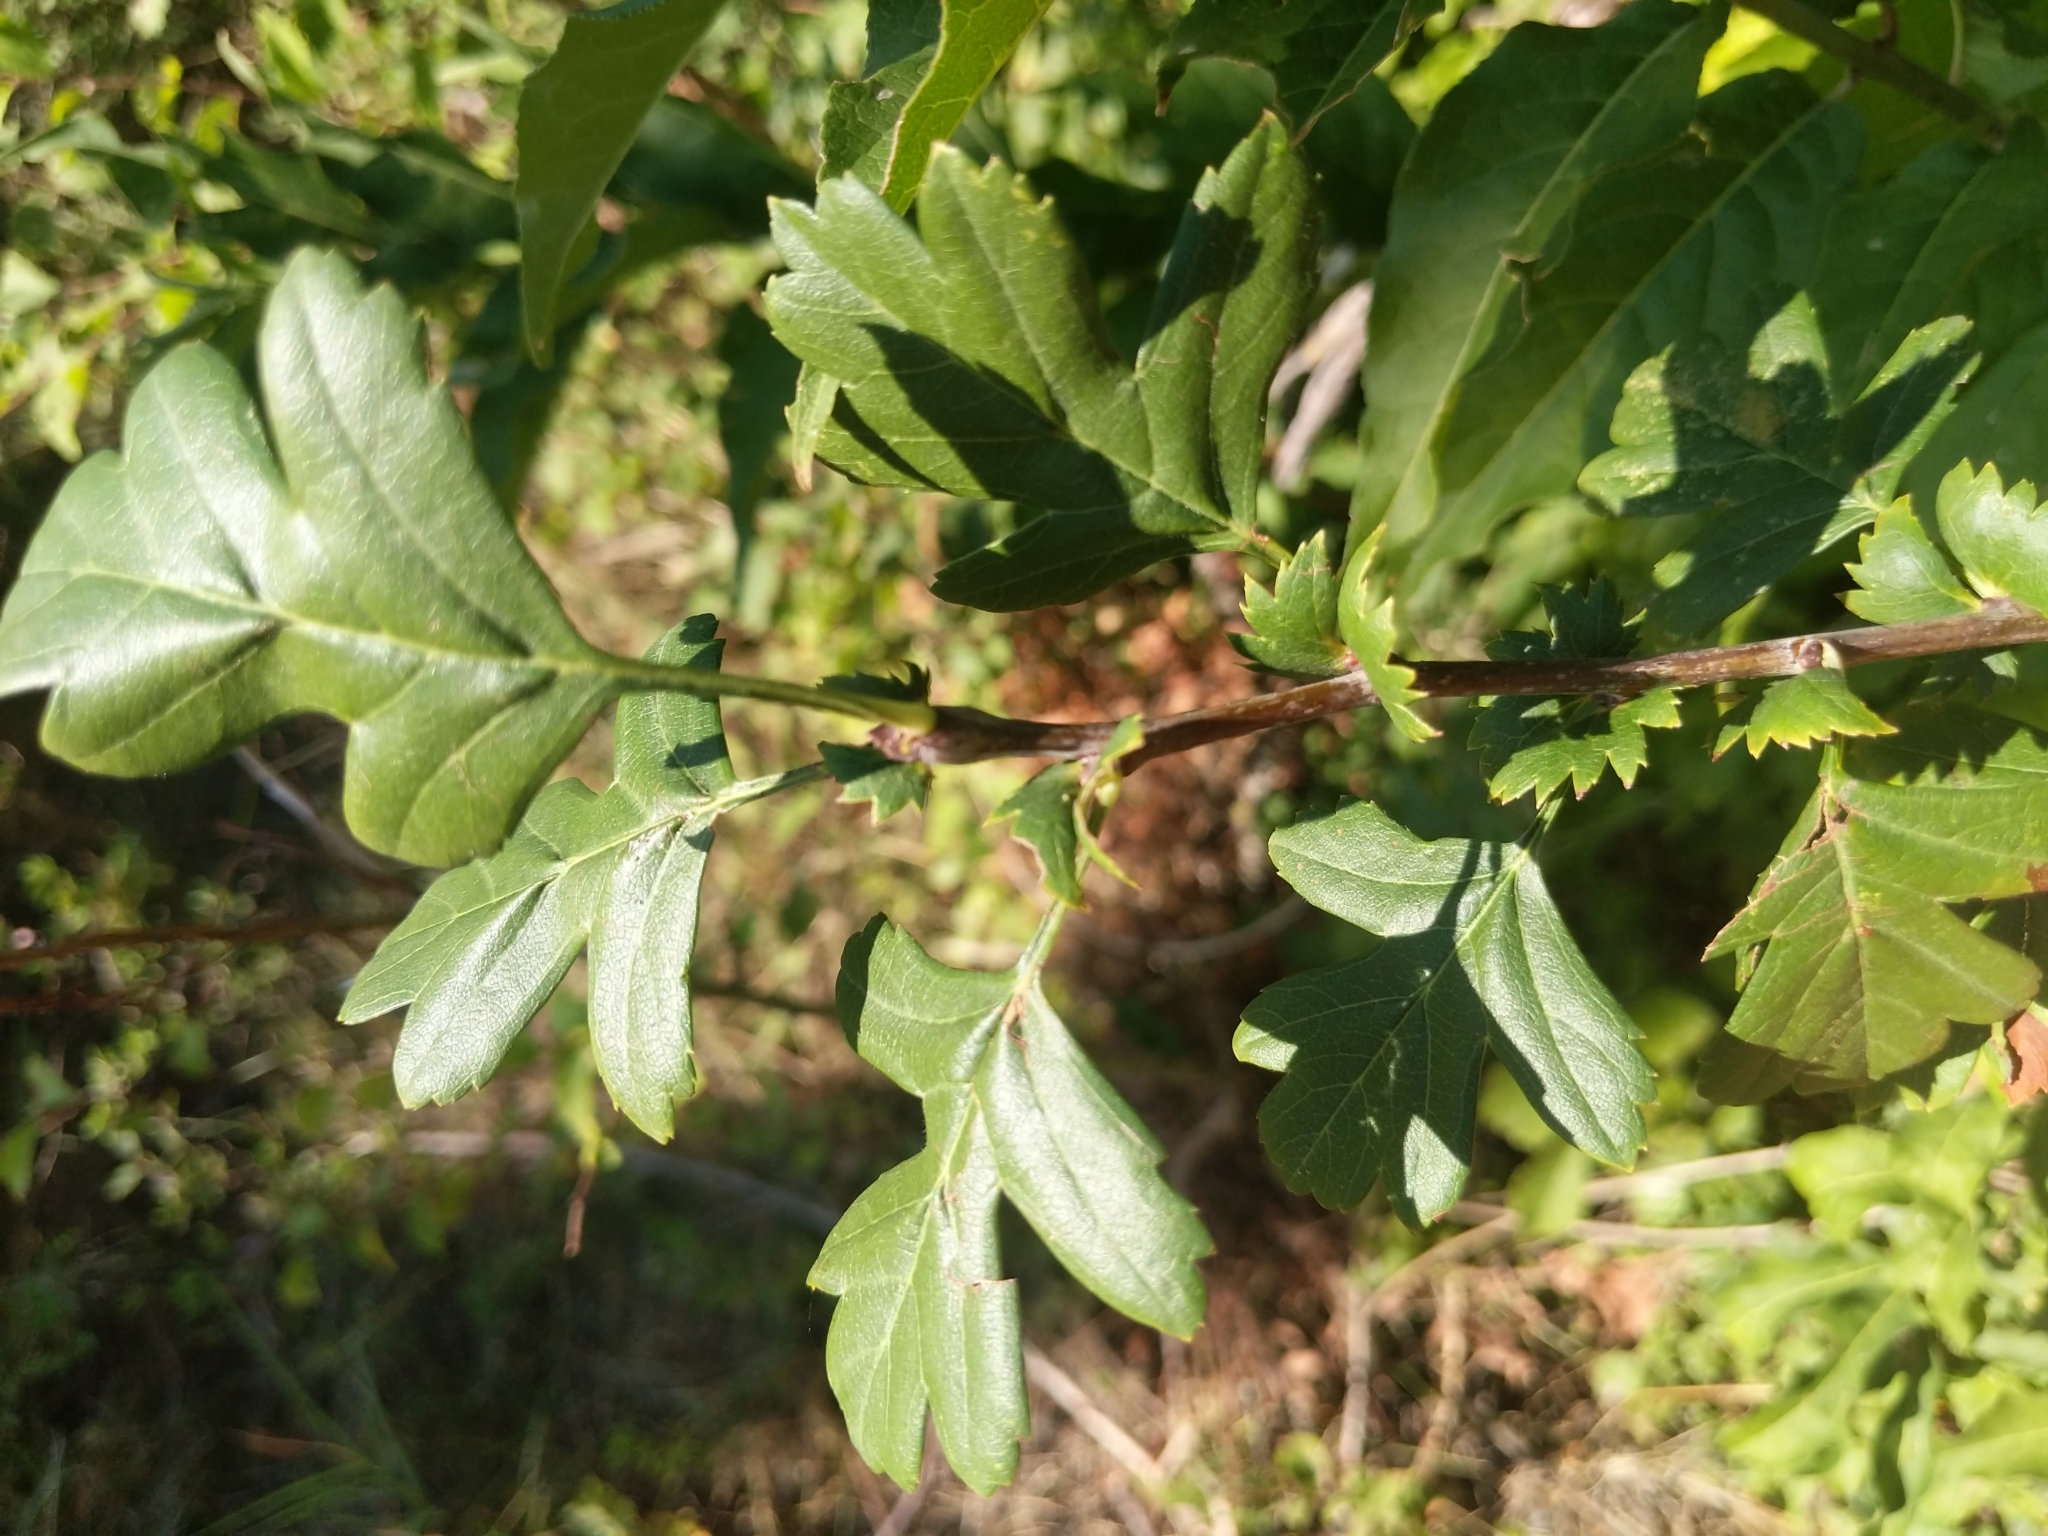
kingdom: Plantae
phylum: Tracheophyta
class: Magnoliopsida
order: Rosales
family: Rosaceae
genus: Crataegus
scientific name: Crataegus monogyna
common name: Hawthorn
